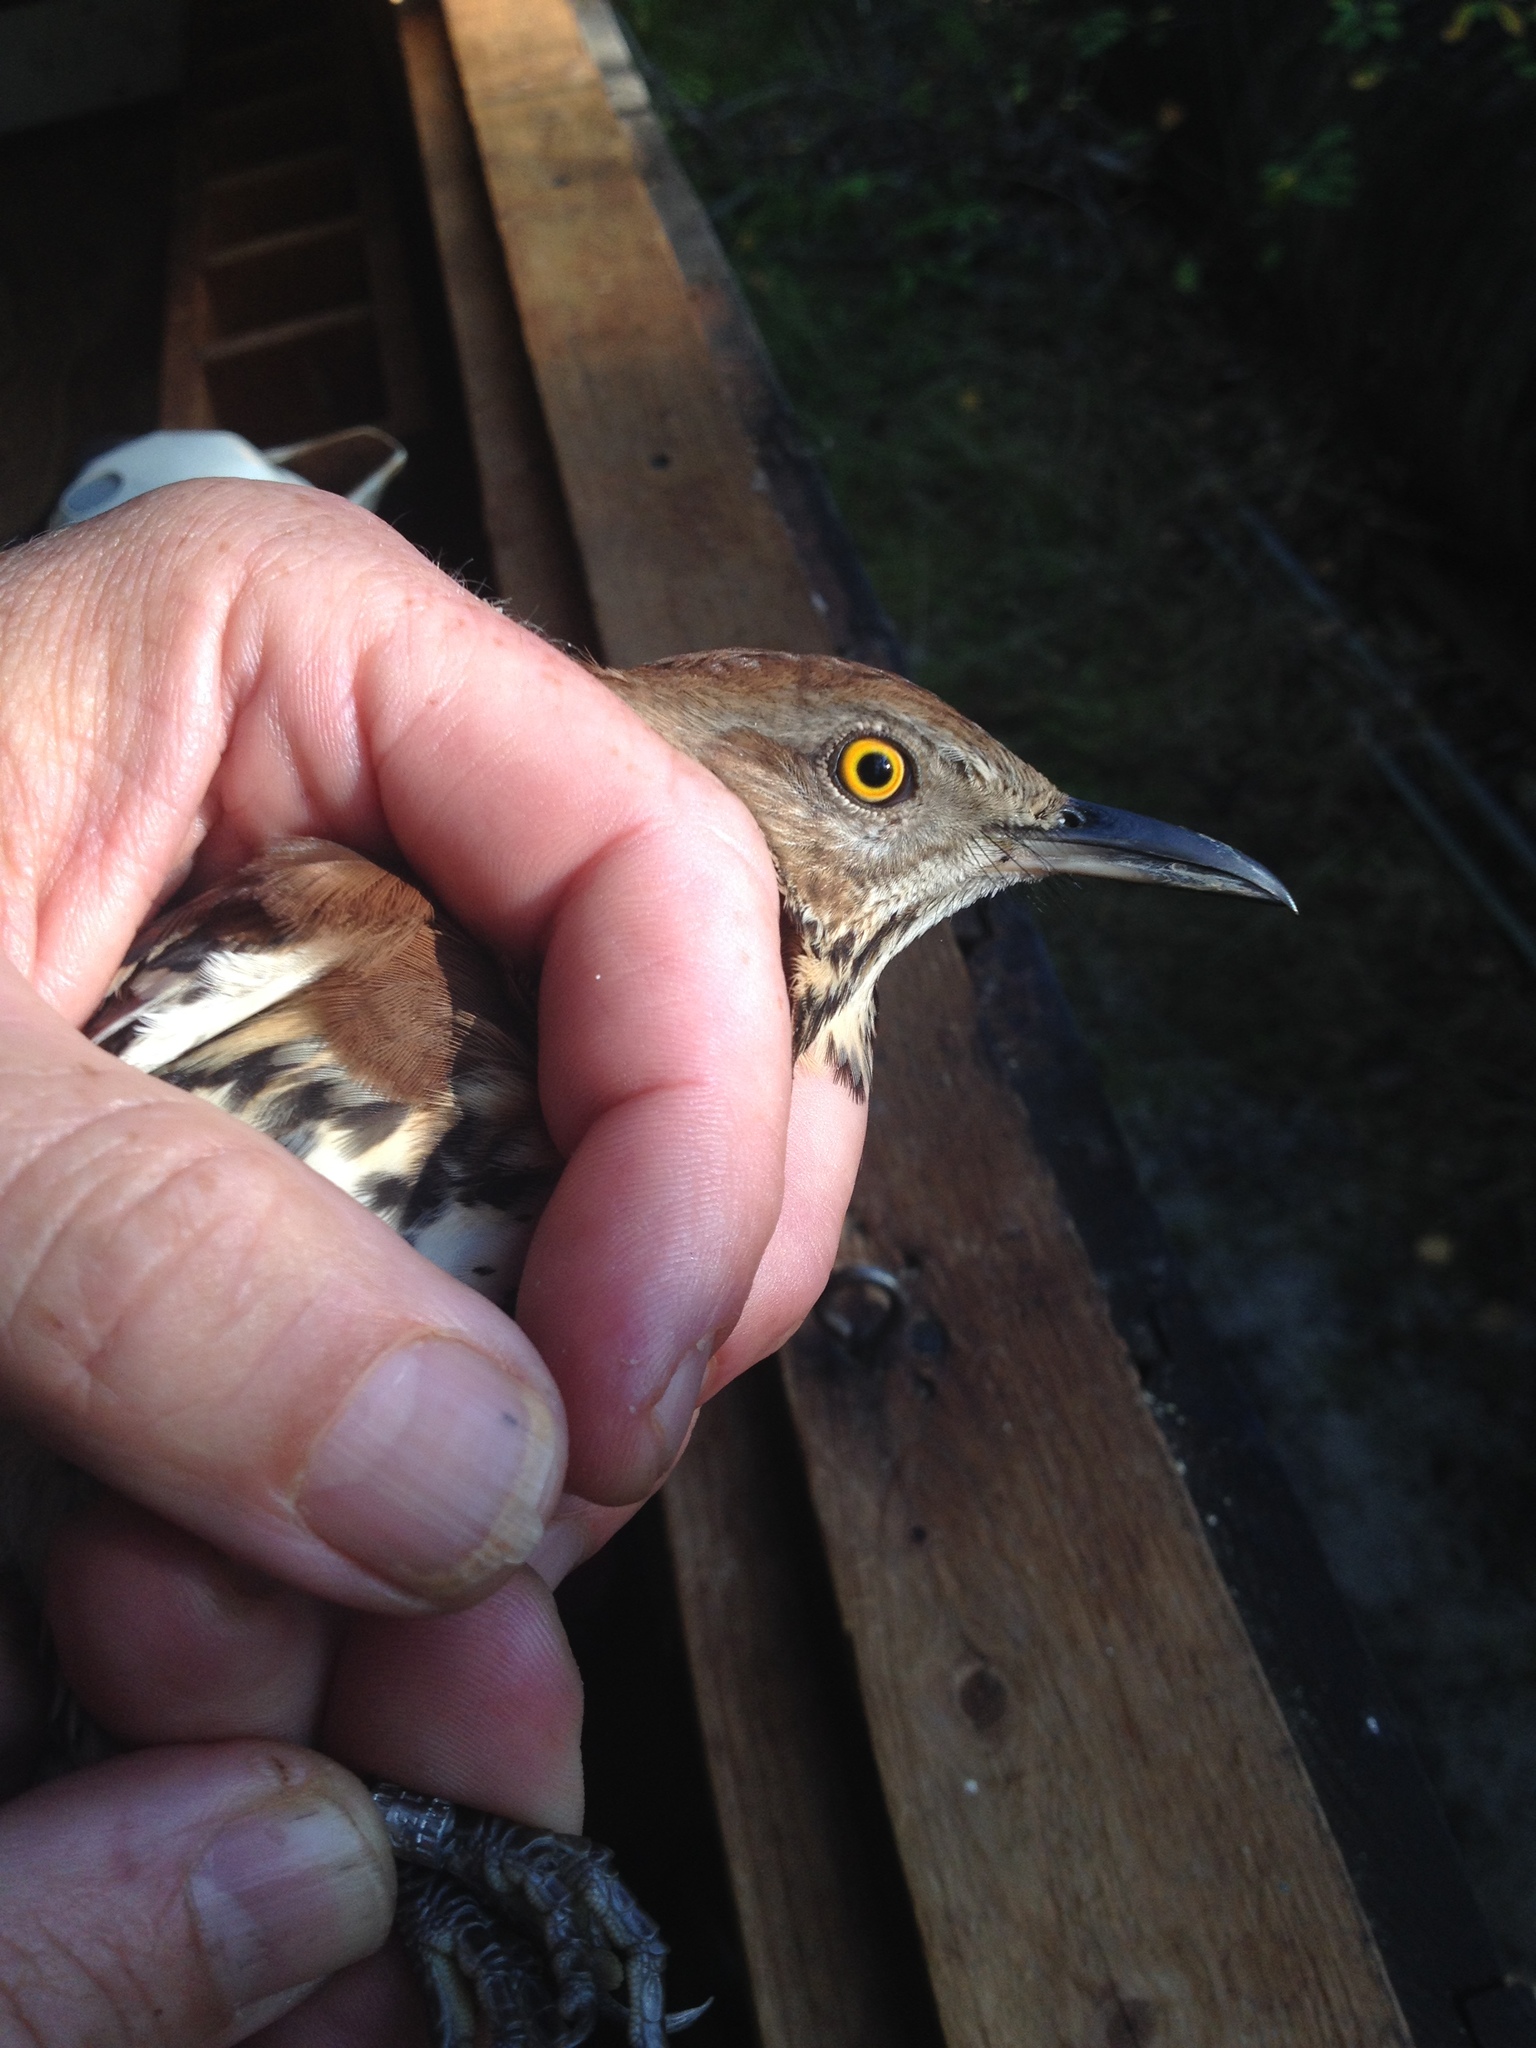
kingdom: Animalia
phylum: Chordata
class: Aves
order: Passeriformes
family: Mimidae
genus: Toxostoma
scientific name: Toxostoma rufum
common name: Brown thrasher
